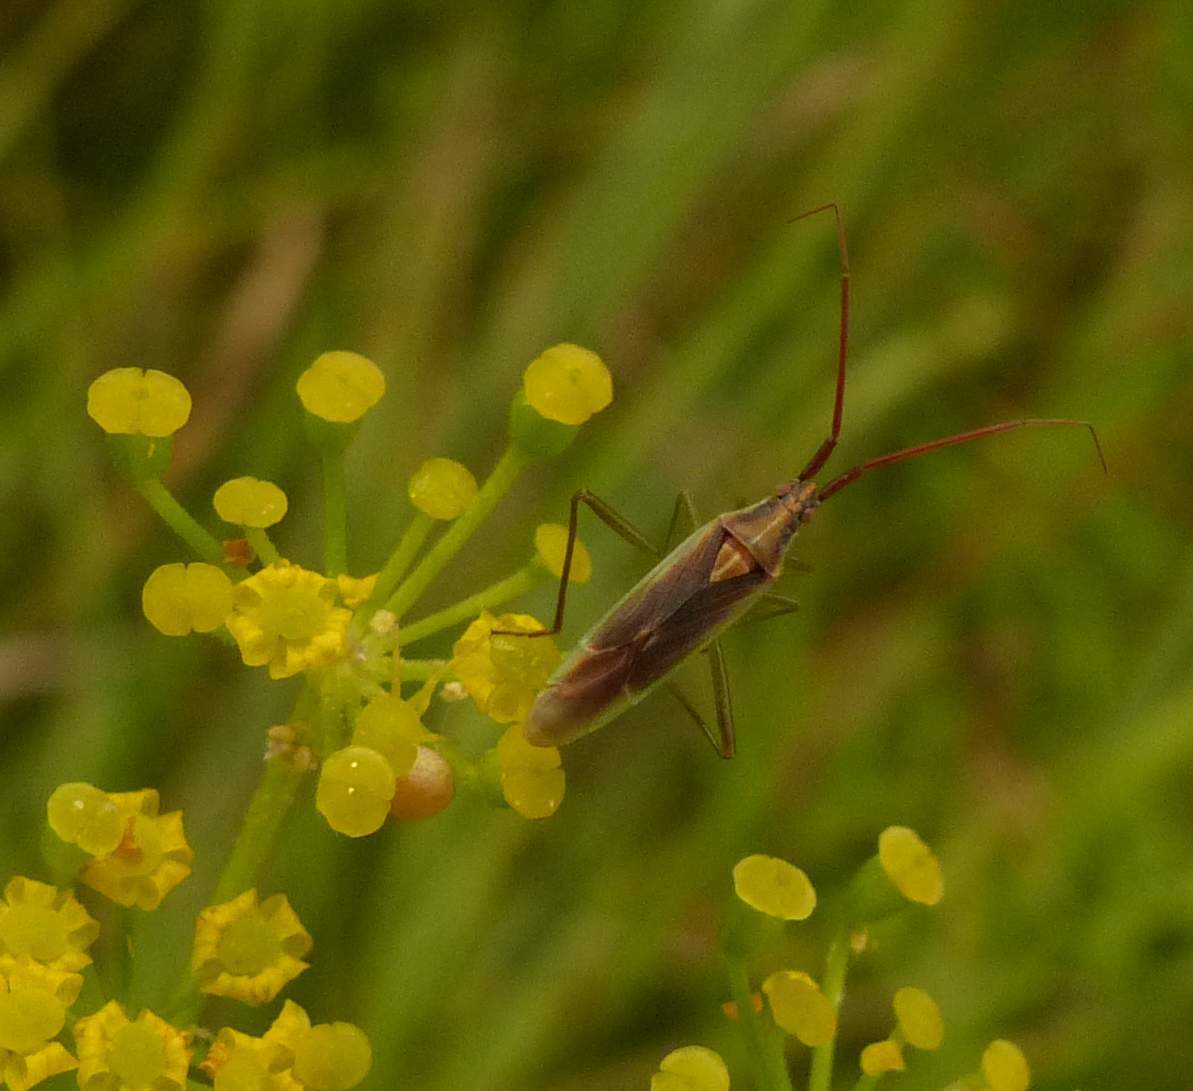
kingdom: Animalia
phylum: Arthropoda
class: Insecta
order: Hemiptera
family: Miridae
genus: Stenodema
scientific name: Stenodema vicinum
